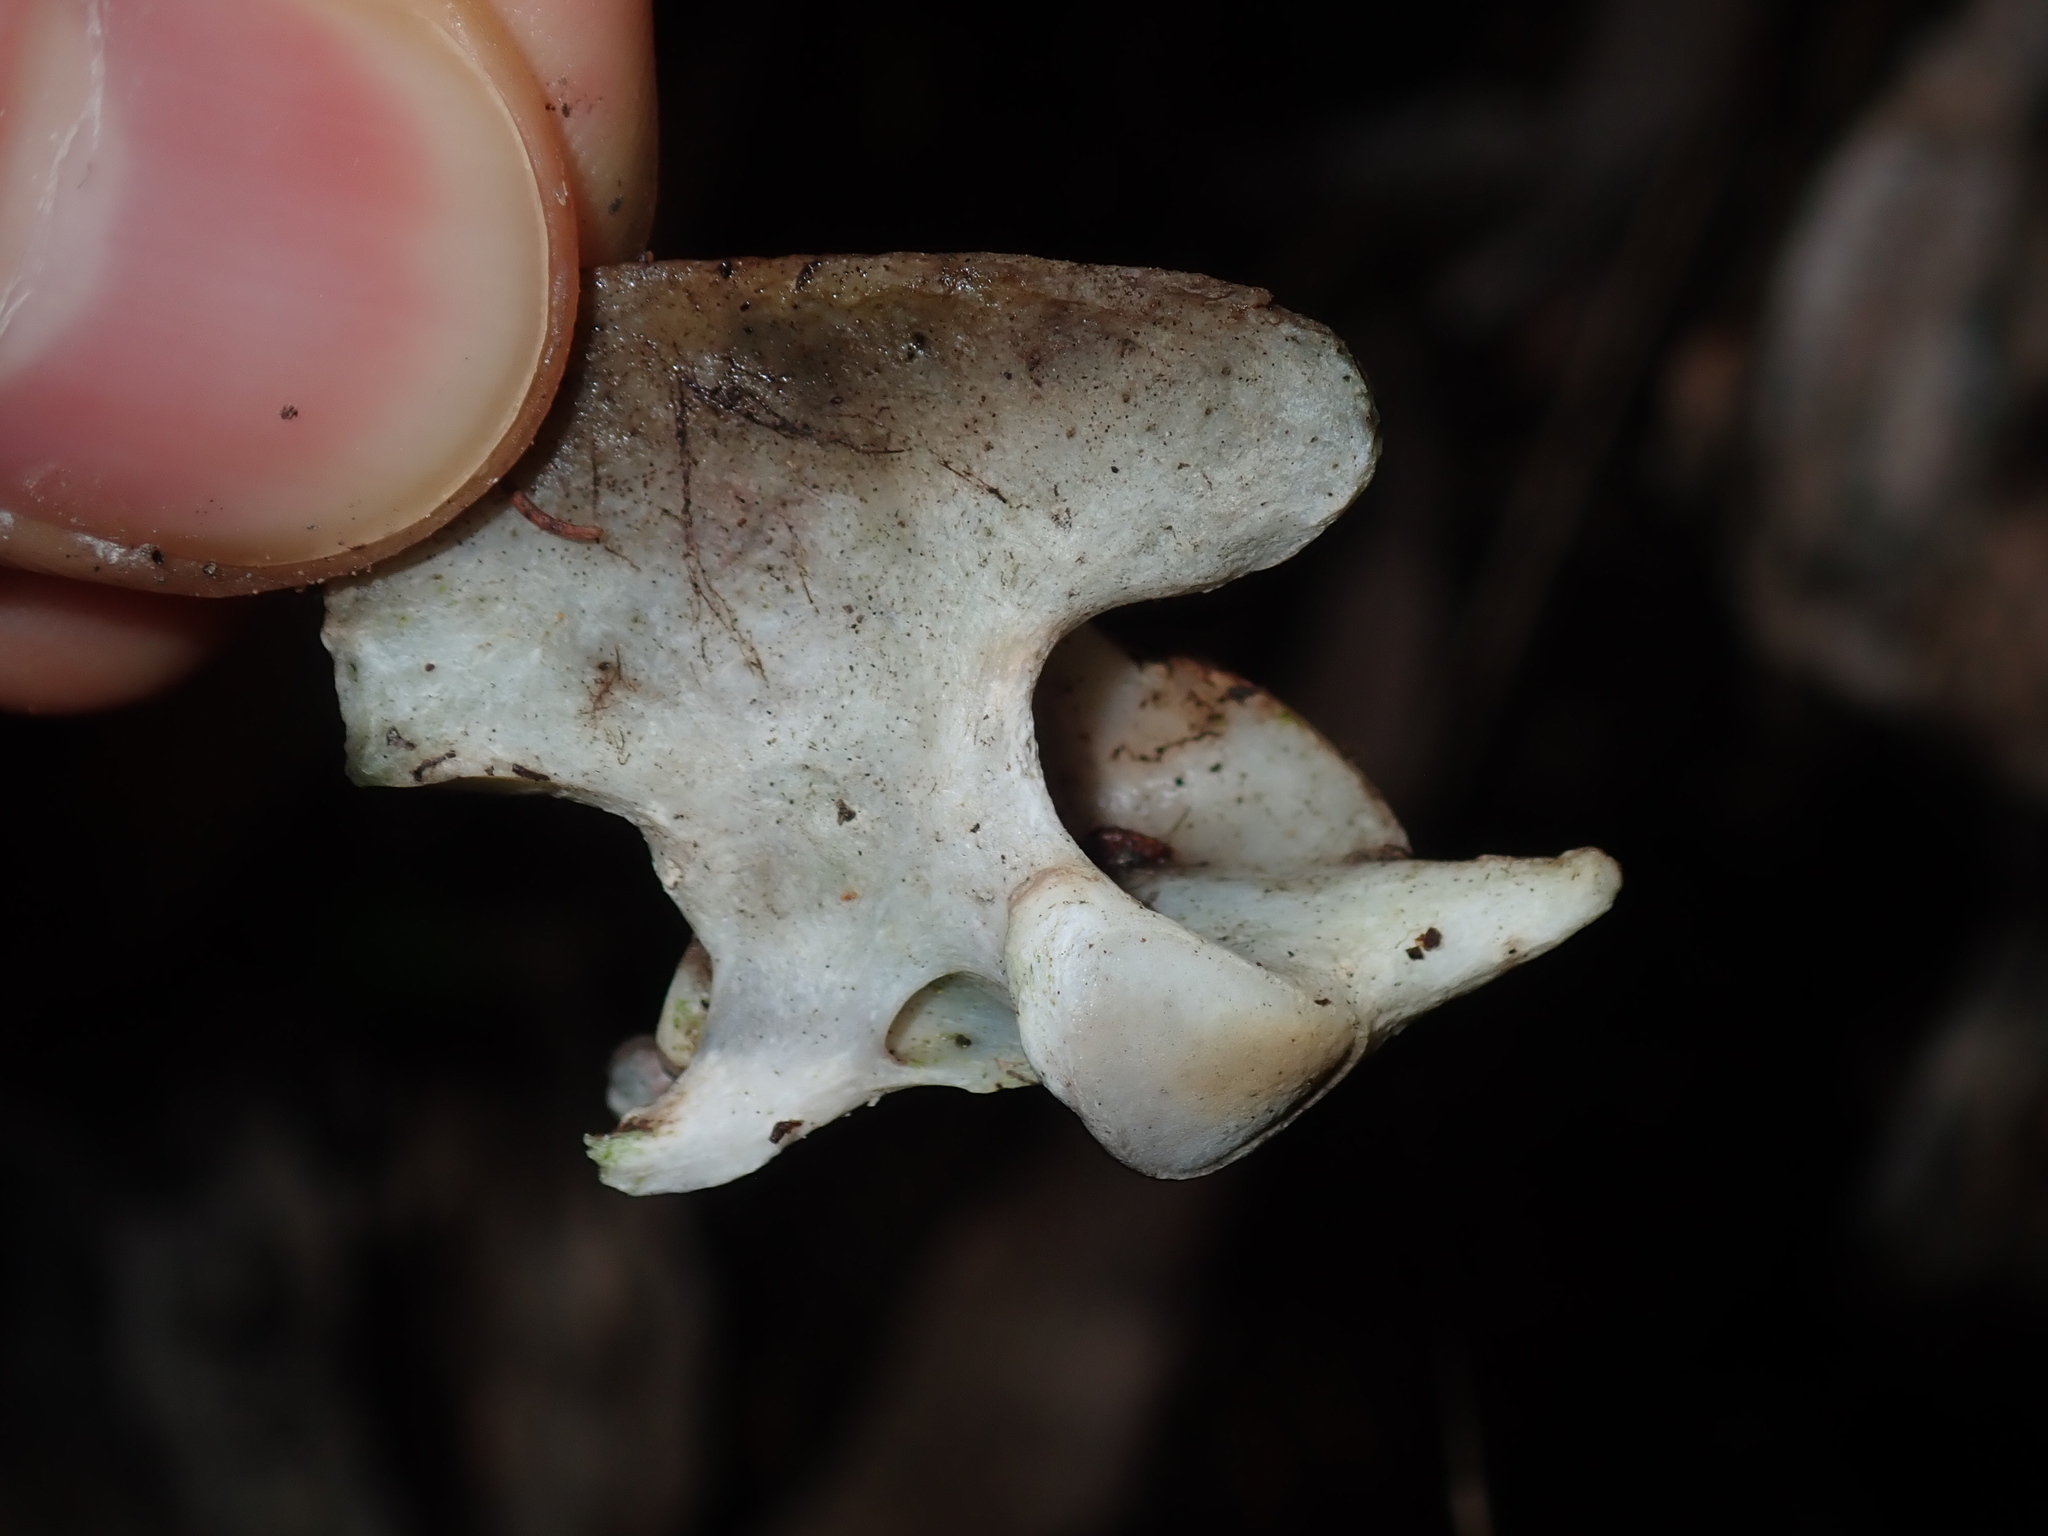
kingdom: Animalia
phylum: Chordata
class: Mammalia
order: Carnivora
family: Felidae
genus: Felis
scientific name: Felis catus
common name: Domestic cat
